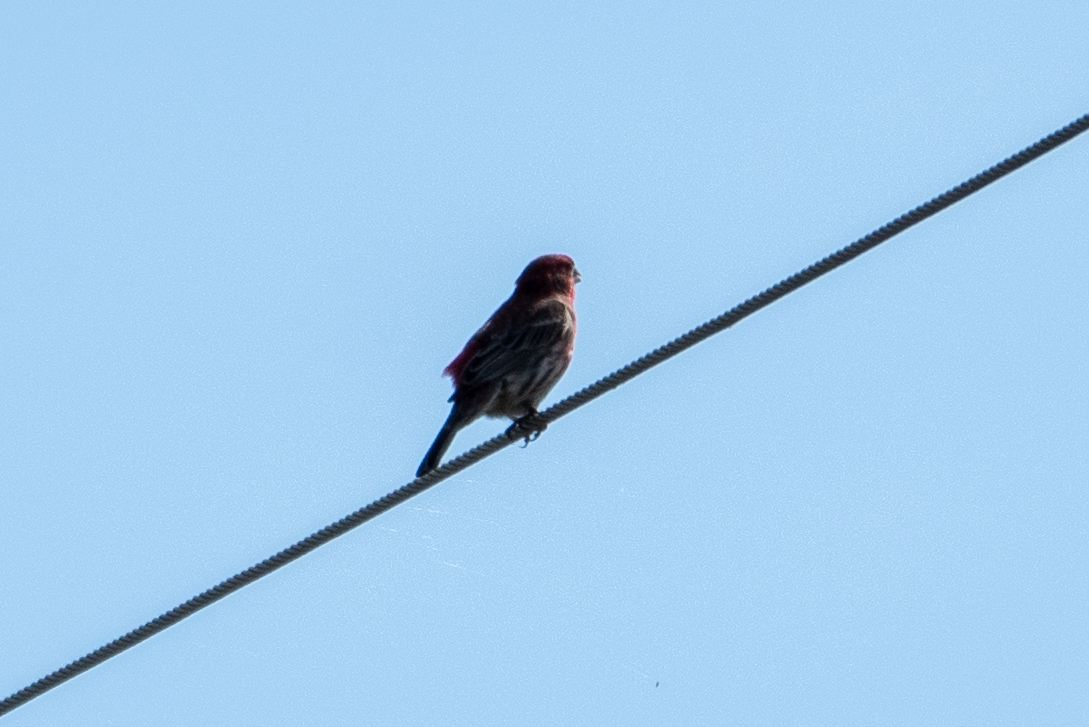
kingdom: Animalia
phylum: Chordata
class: Aves
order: Passeriformes
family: Fringillidae
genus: Haemorhous
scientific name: Haemorhous mexicanus
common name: House finch
